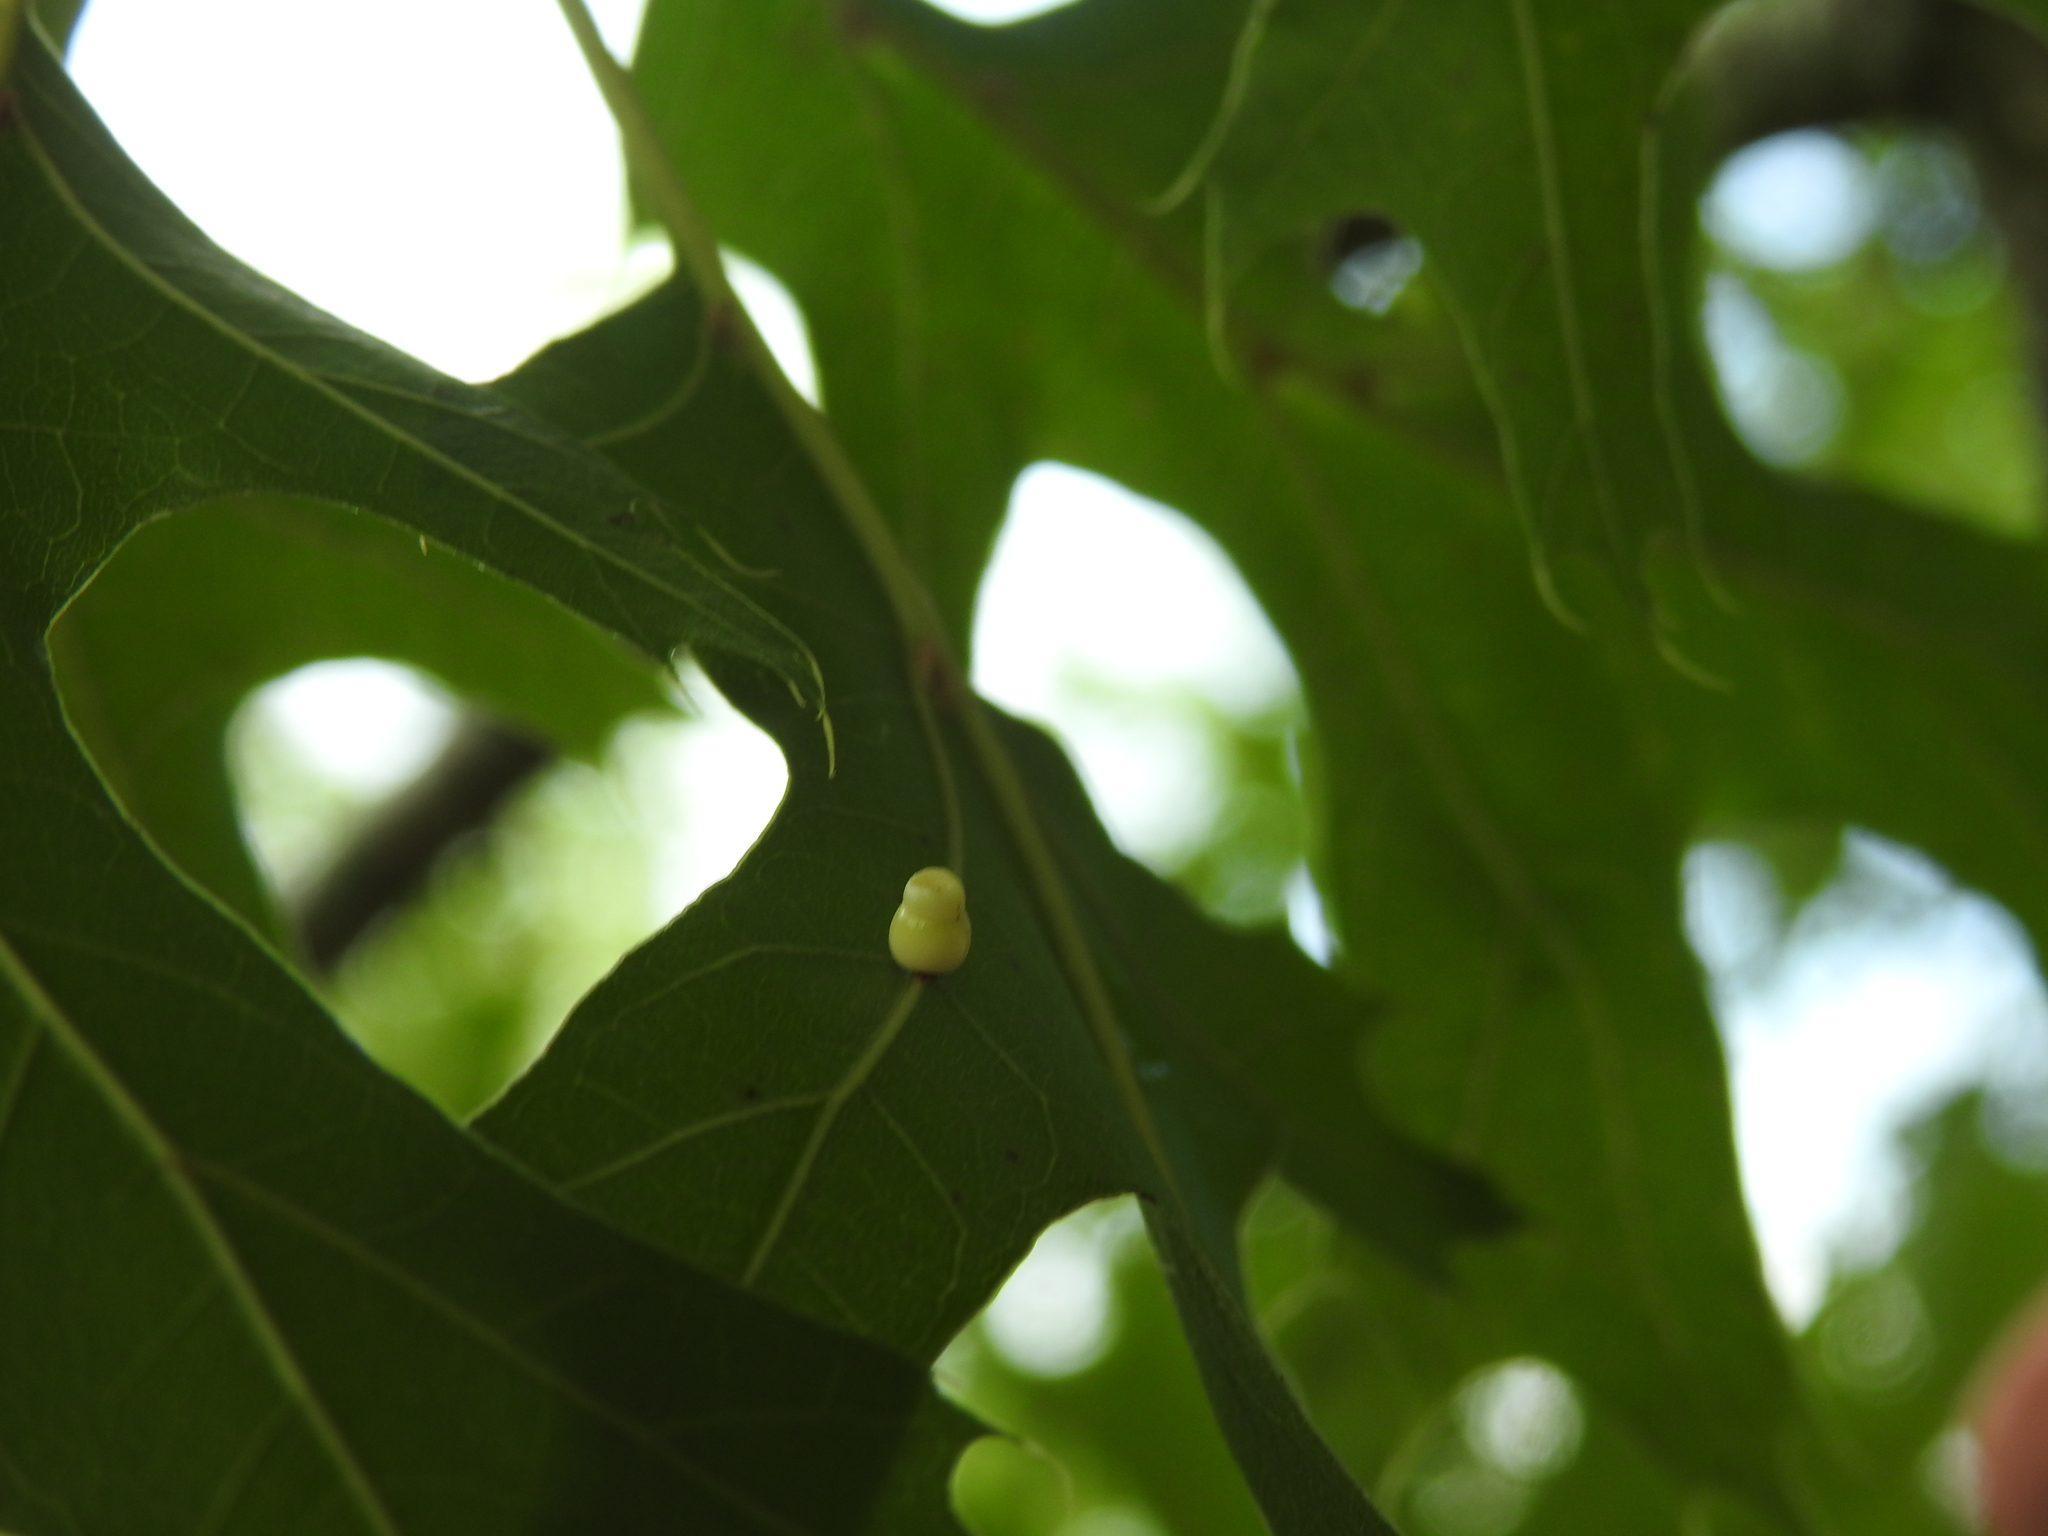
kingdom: Animalia
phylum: Arthropoda
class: Insecta
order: Hymenoptera
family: Cynipidae
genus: Kokkocynips
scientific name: Kokkocynips rileyi
